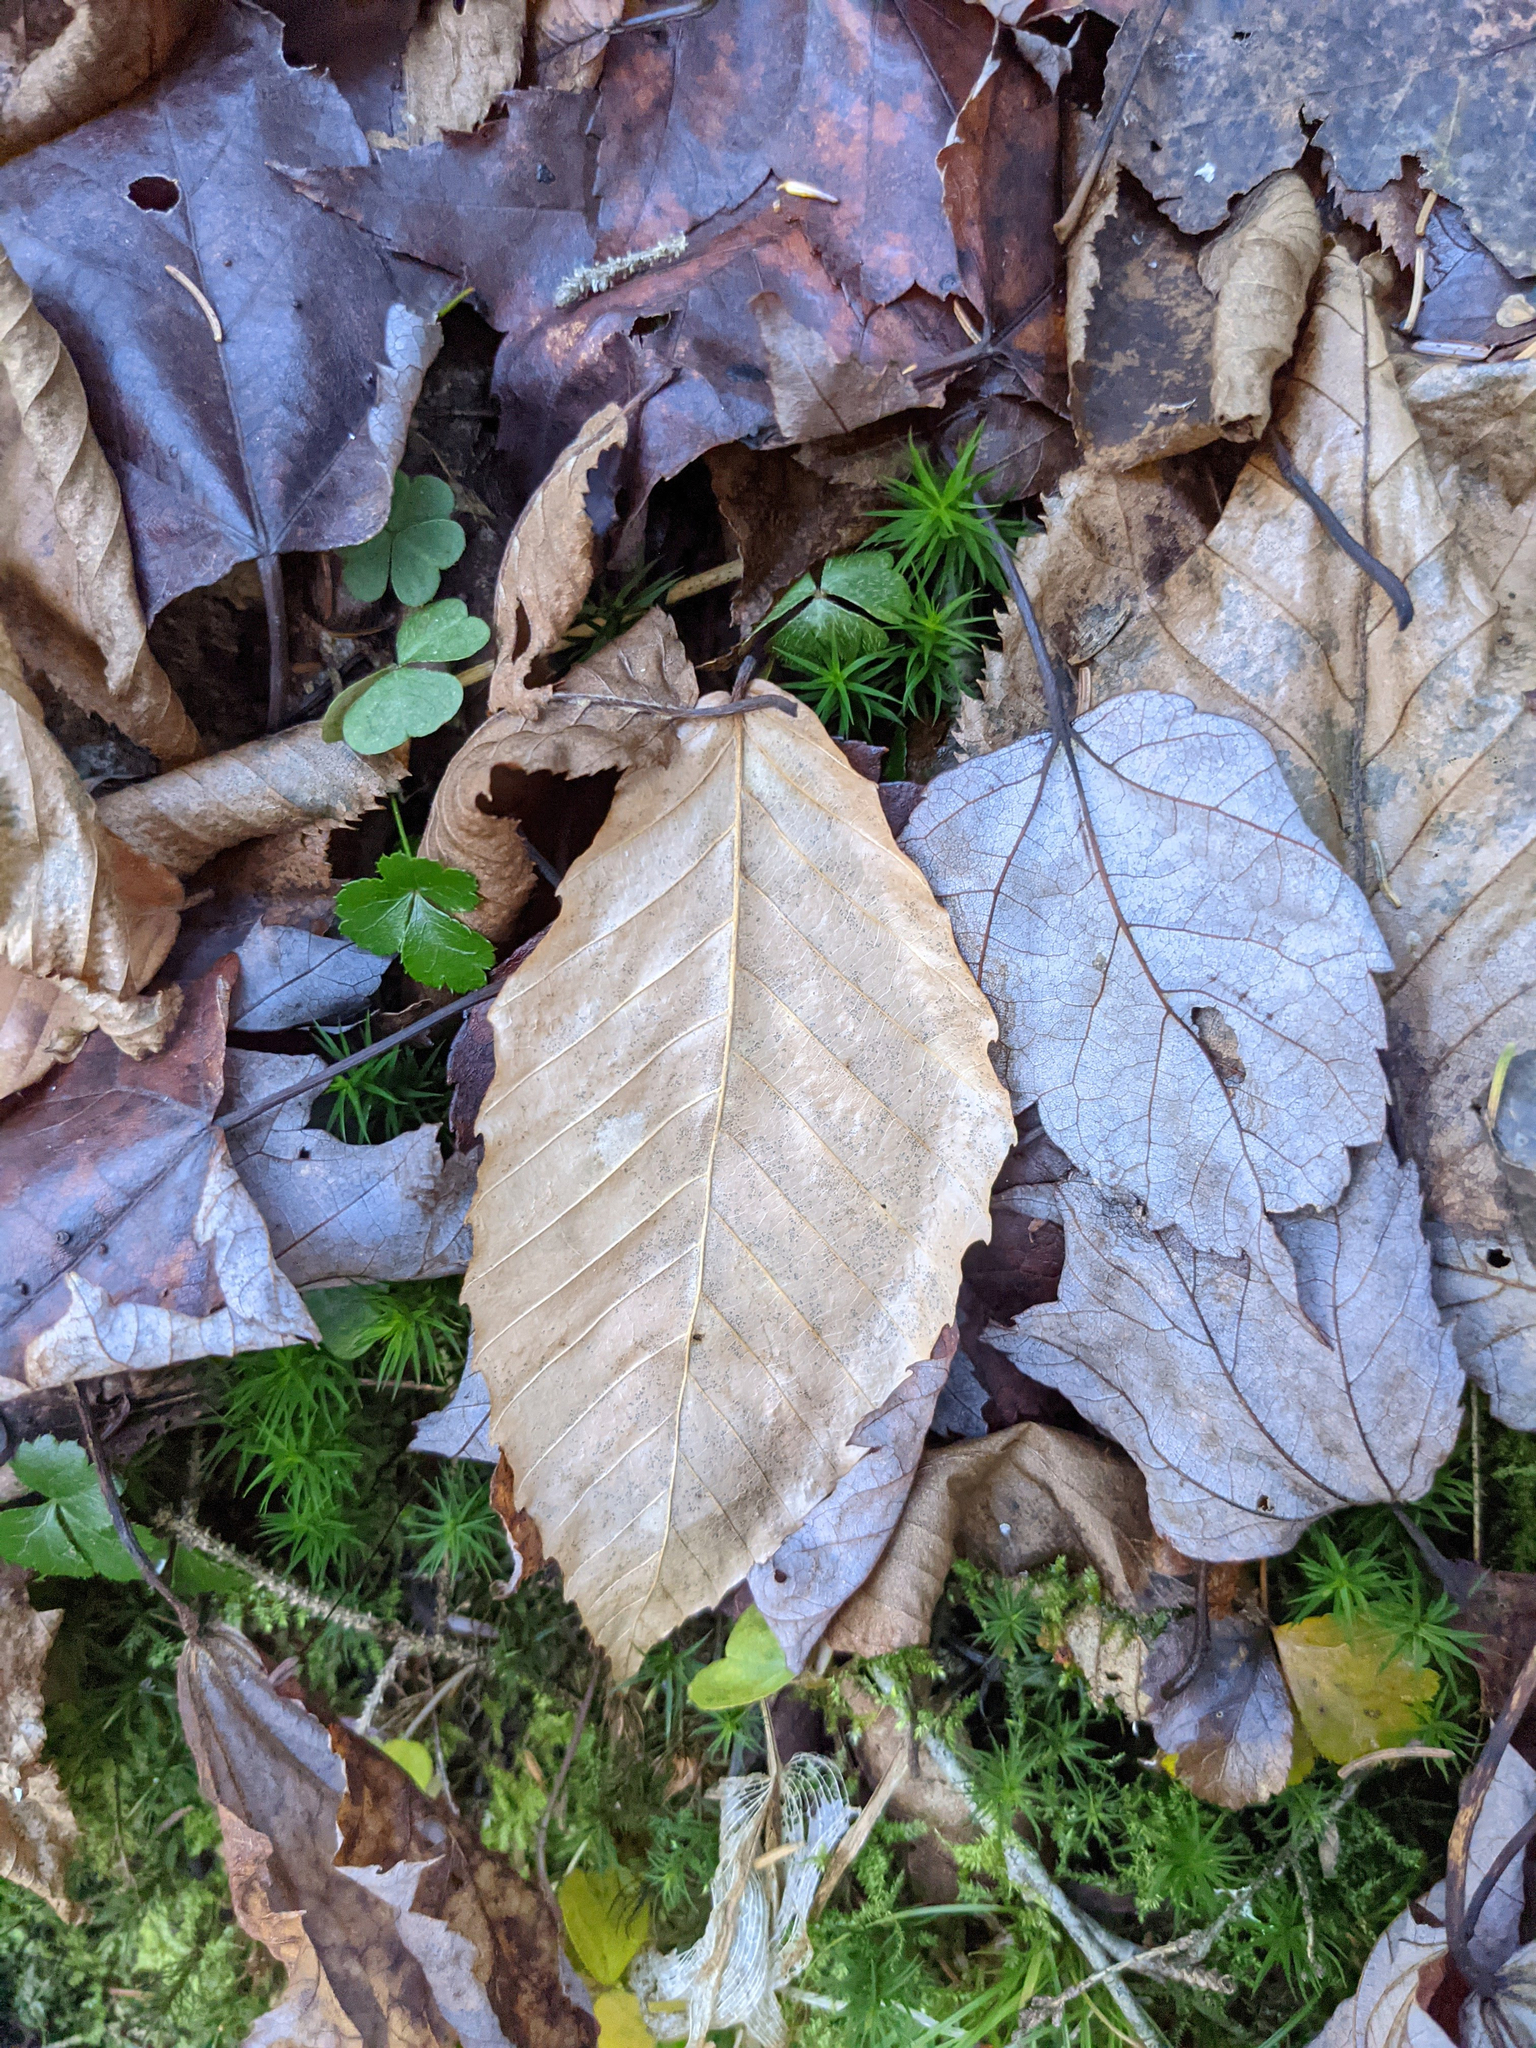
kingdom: Plantae
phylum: Tracheophyta
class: Magnoliopsida
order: Fagales
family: Fagaceae
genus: Fagus
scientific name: Fagus grandifolia
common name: American beech
